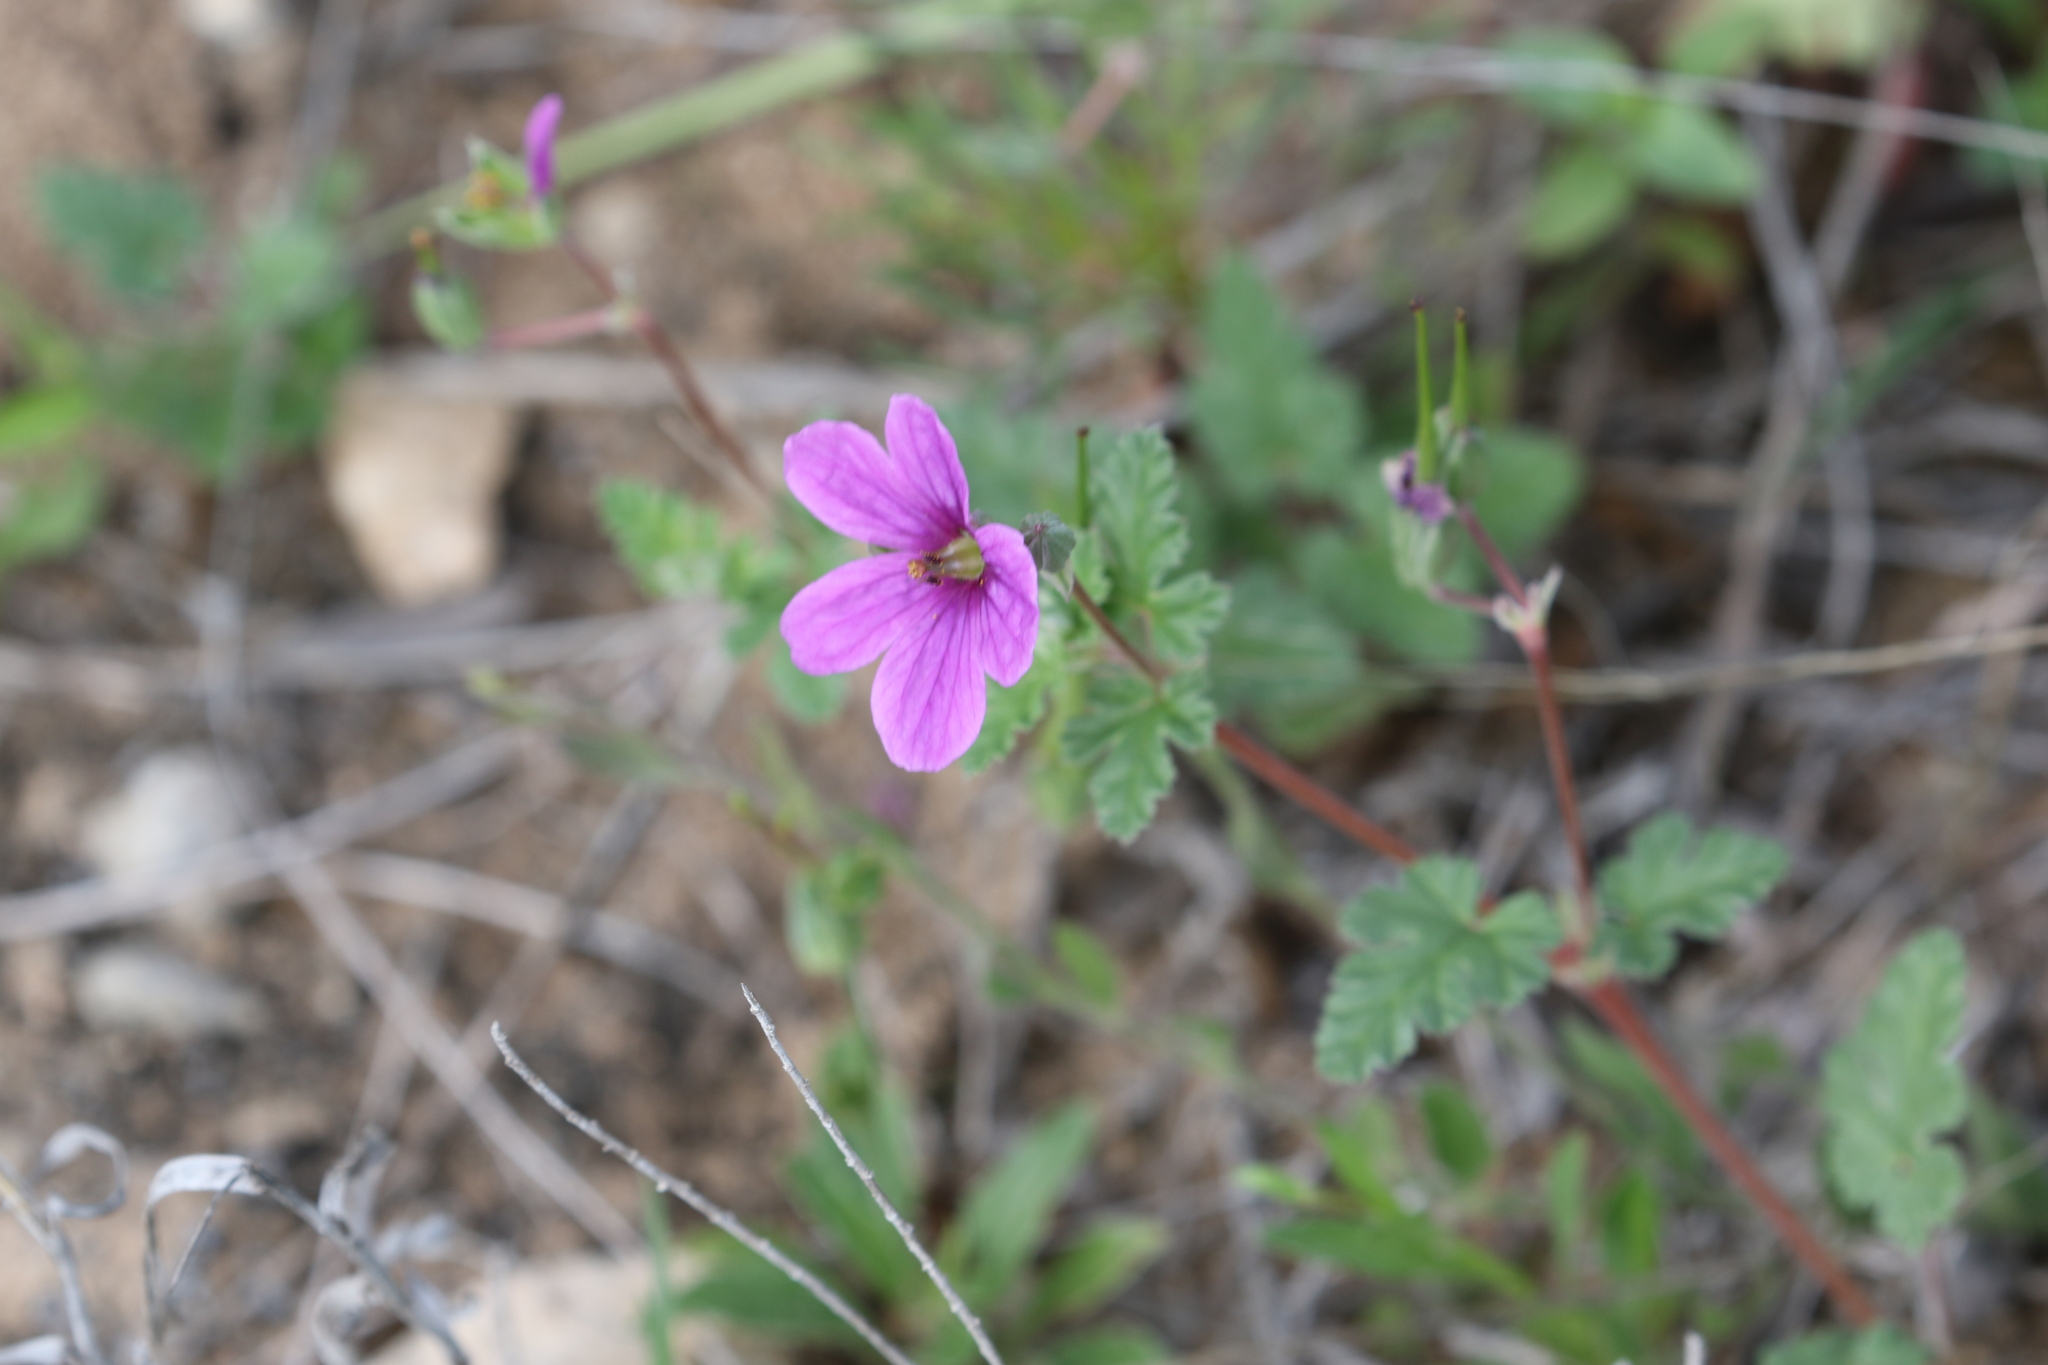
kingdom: Plantae
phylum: Tracheophyta
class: Magnoliopsida
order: Geraniales
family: Geraniaceae
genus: Erodium
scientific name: Erodium texanum
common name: Texas stork's-bill
